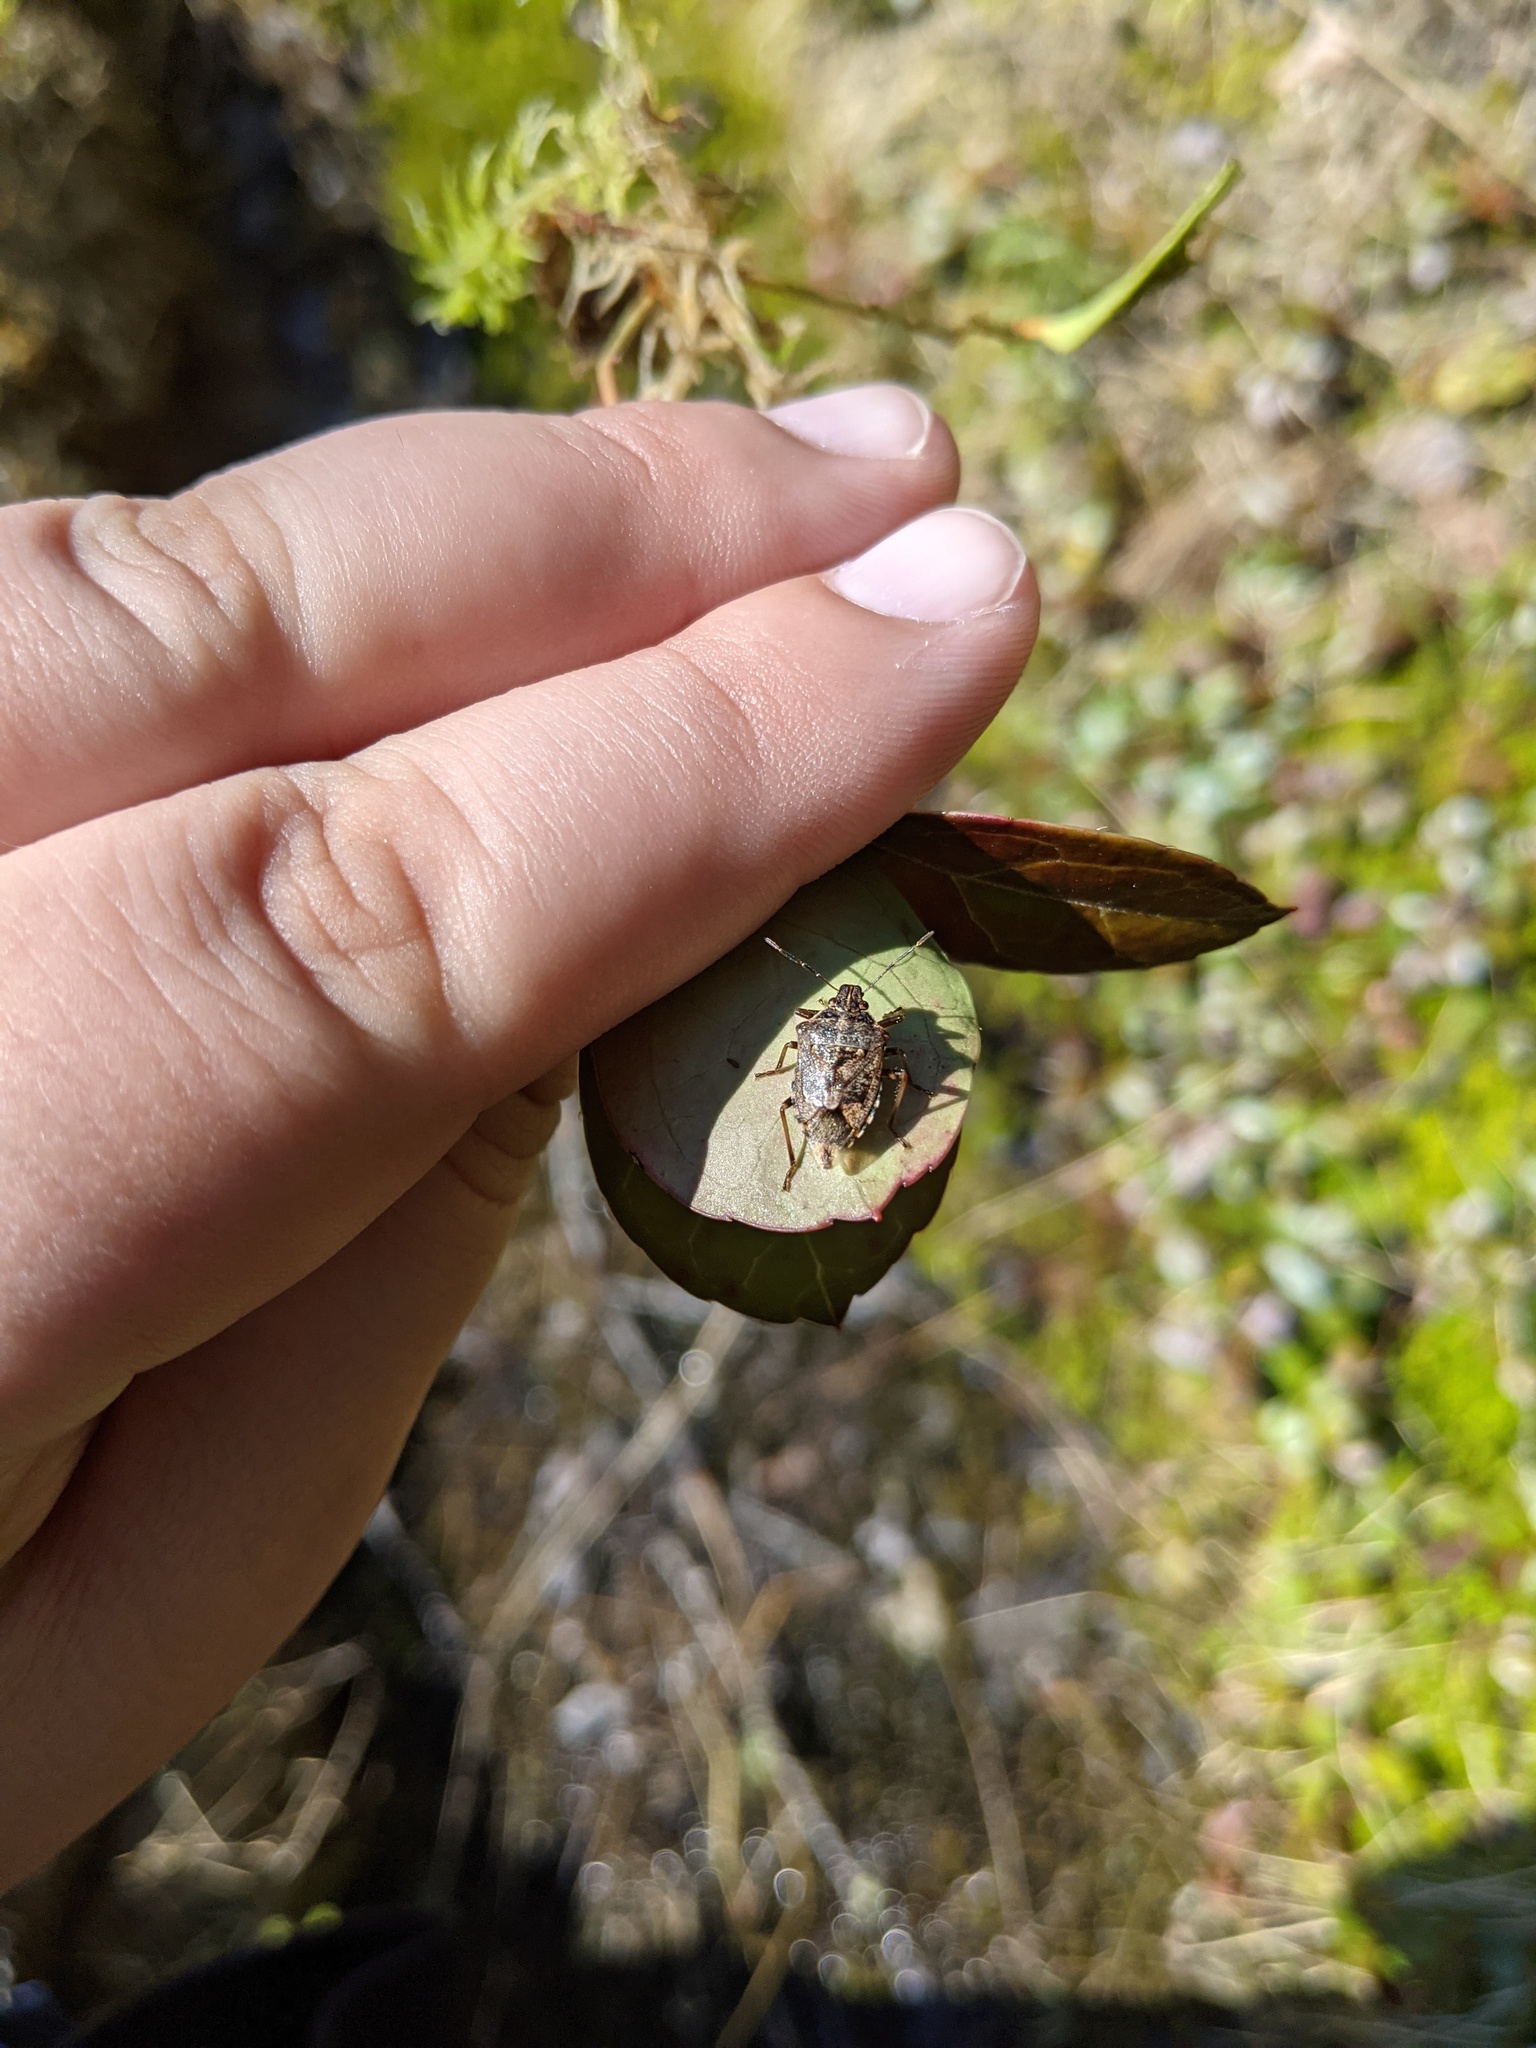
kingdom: Animalia
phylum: Arthropoda
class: Insecta
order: Hemiptera
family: Pentatomidae
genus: Podisus
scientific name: Podisus serieventris
